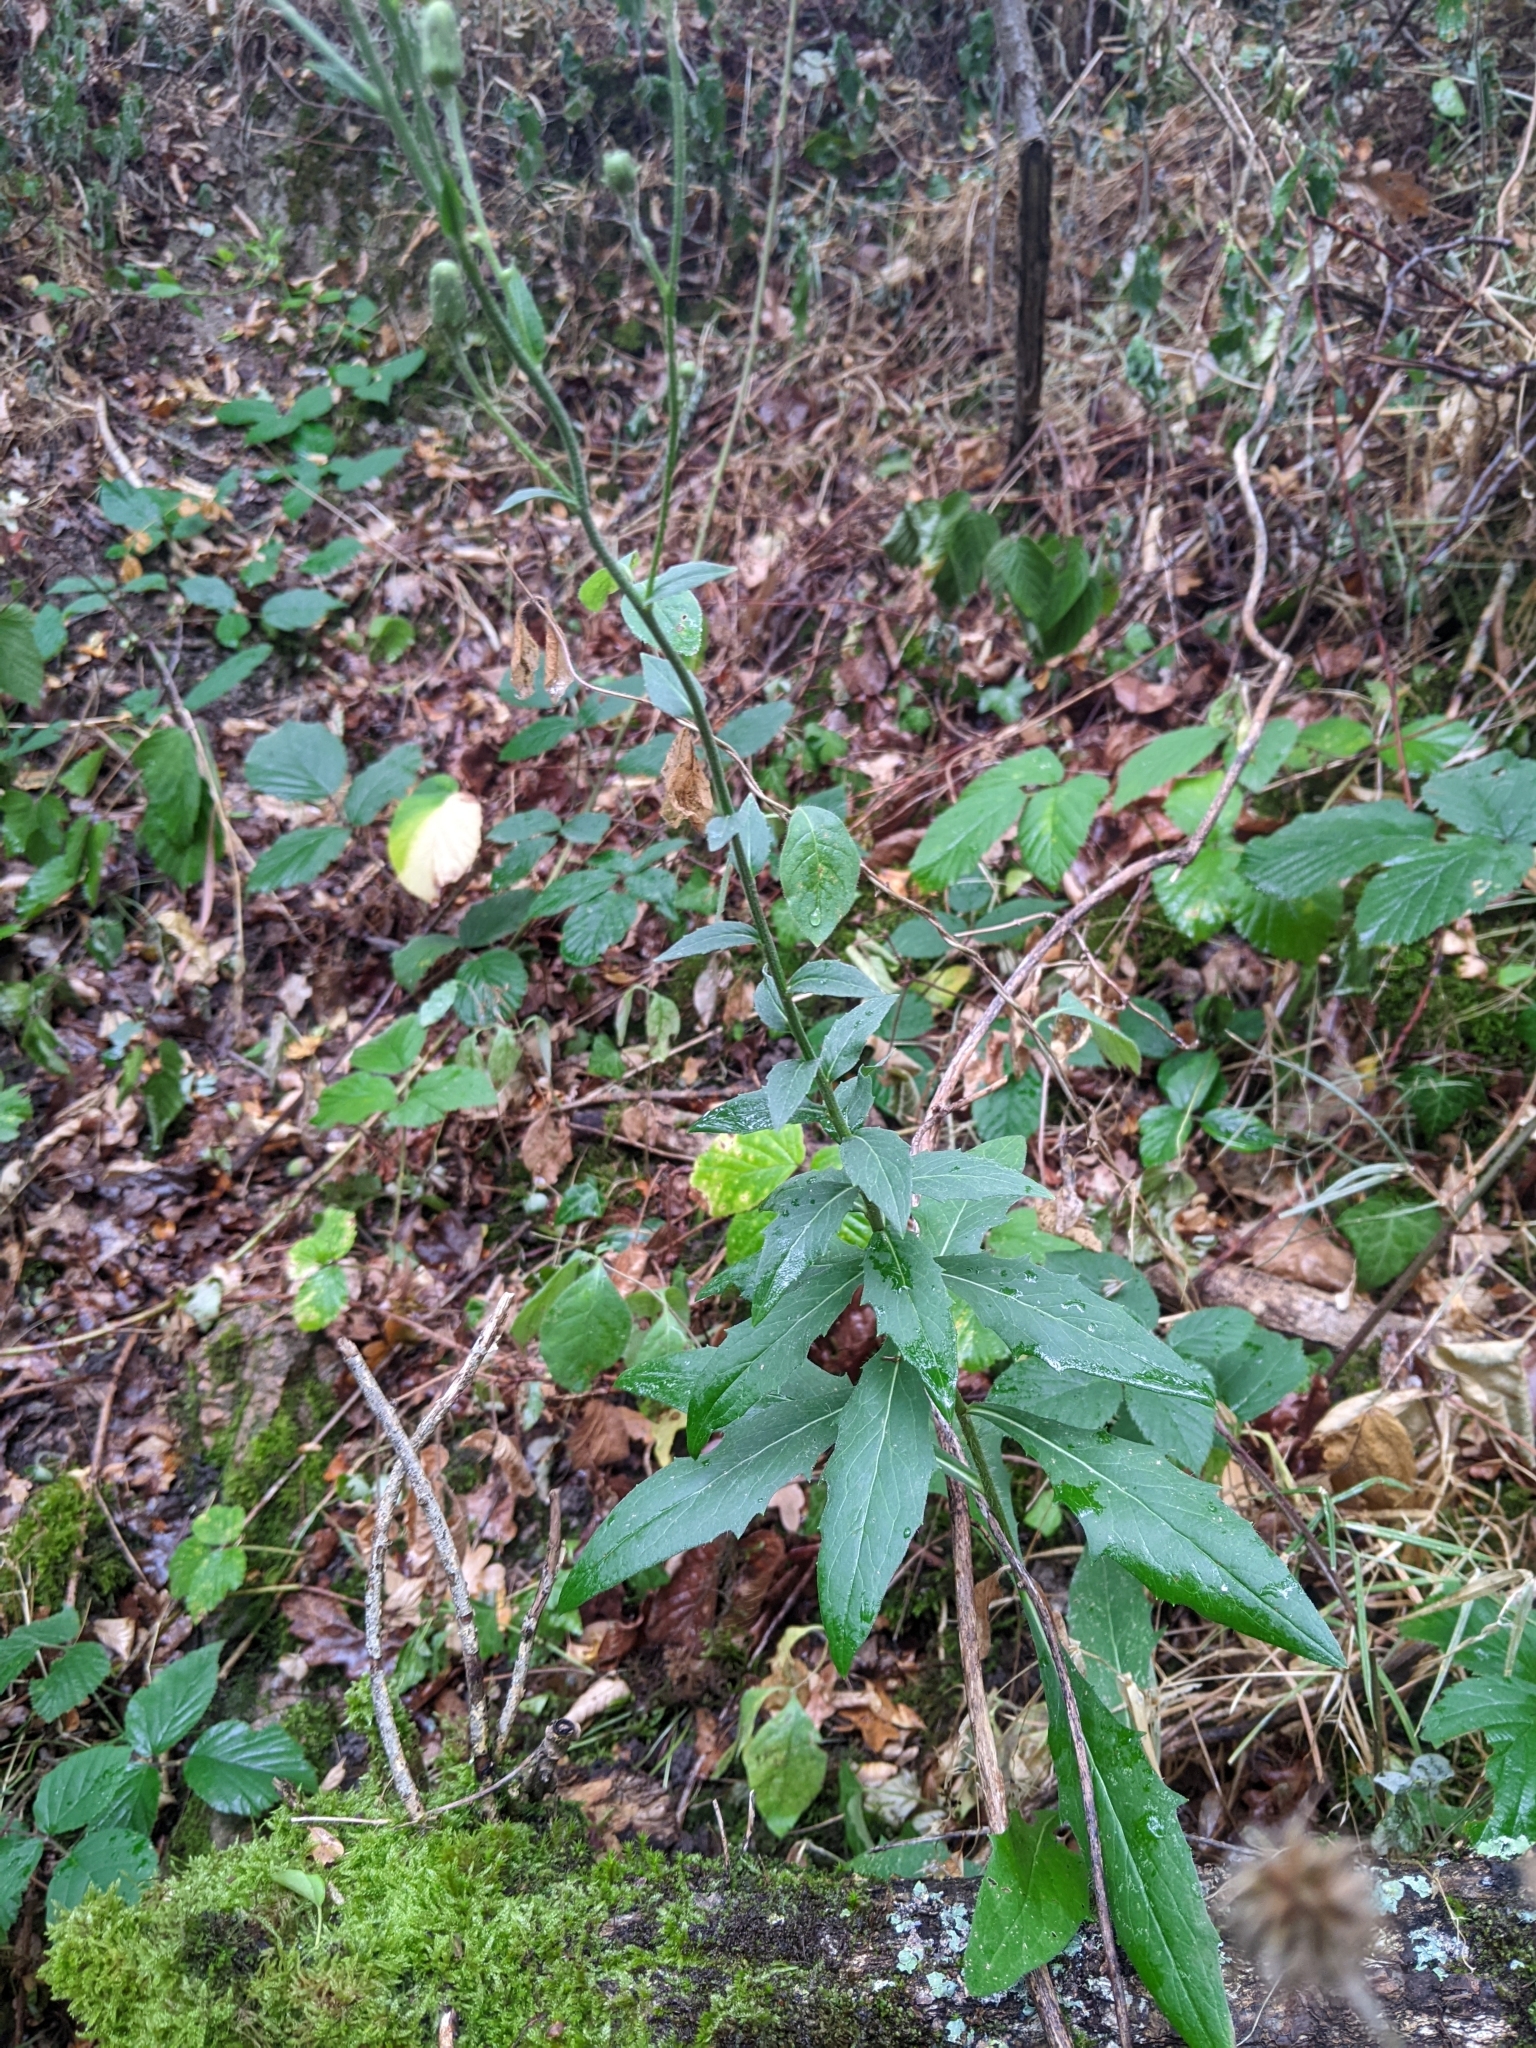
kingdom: Plantae
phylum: Tracheophyta
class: Magnoliopsida
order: Asterales
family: Asteraceae
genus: Hieracium
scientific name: Hieracium sabaudum
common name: New england hawkweed
